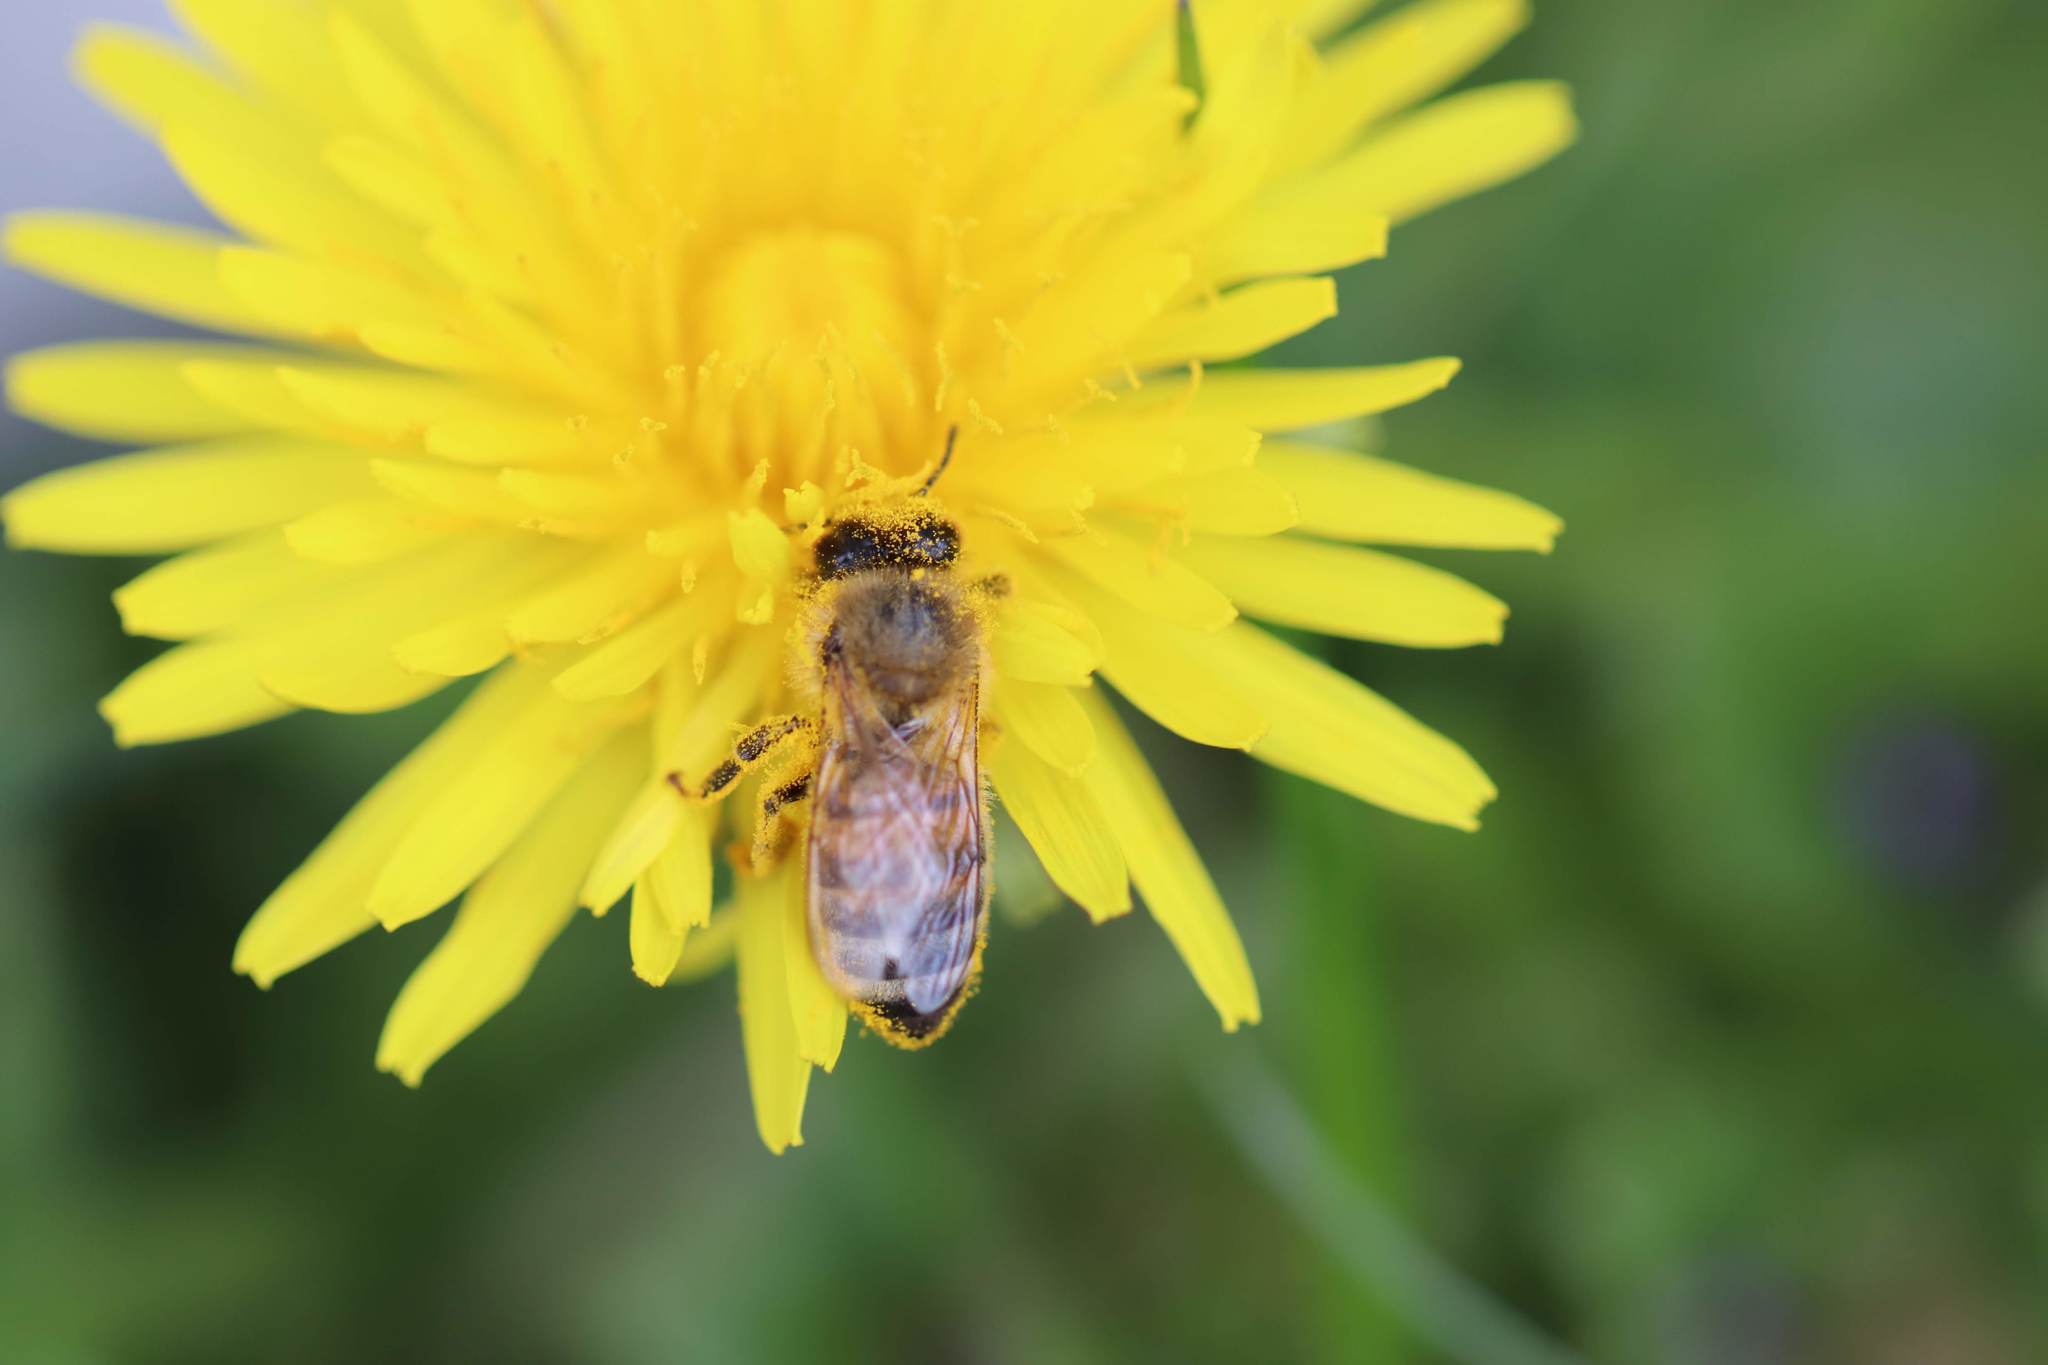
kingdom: Animalia
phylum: Arthropoda
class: Insecta
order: Hymenoptera
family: Apidae
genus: Apis
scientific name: Apis mellifera
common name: Honey bee
